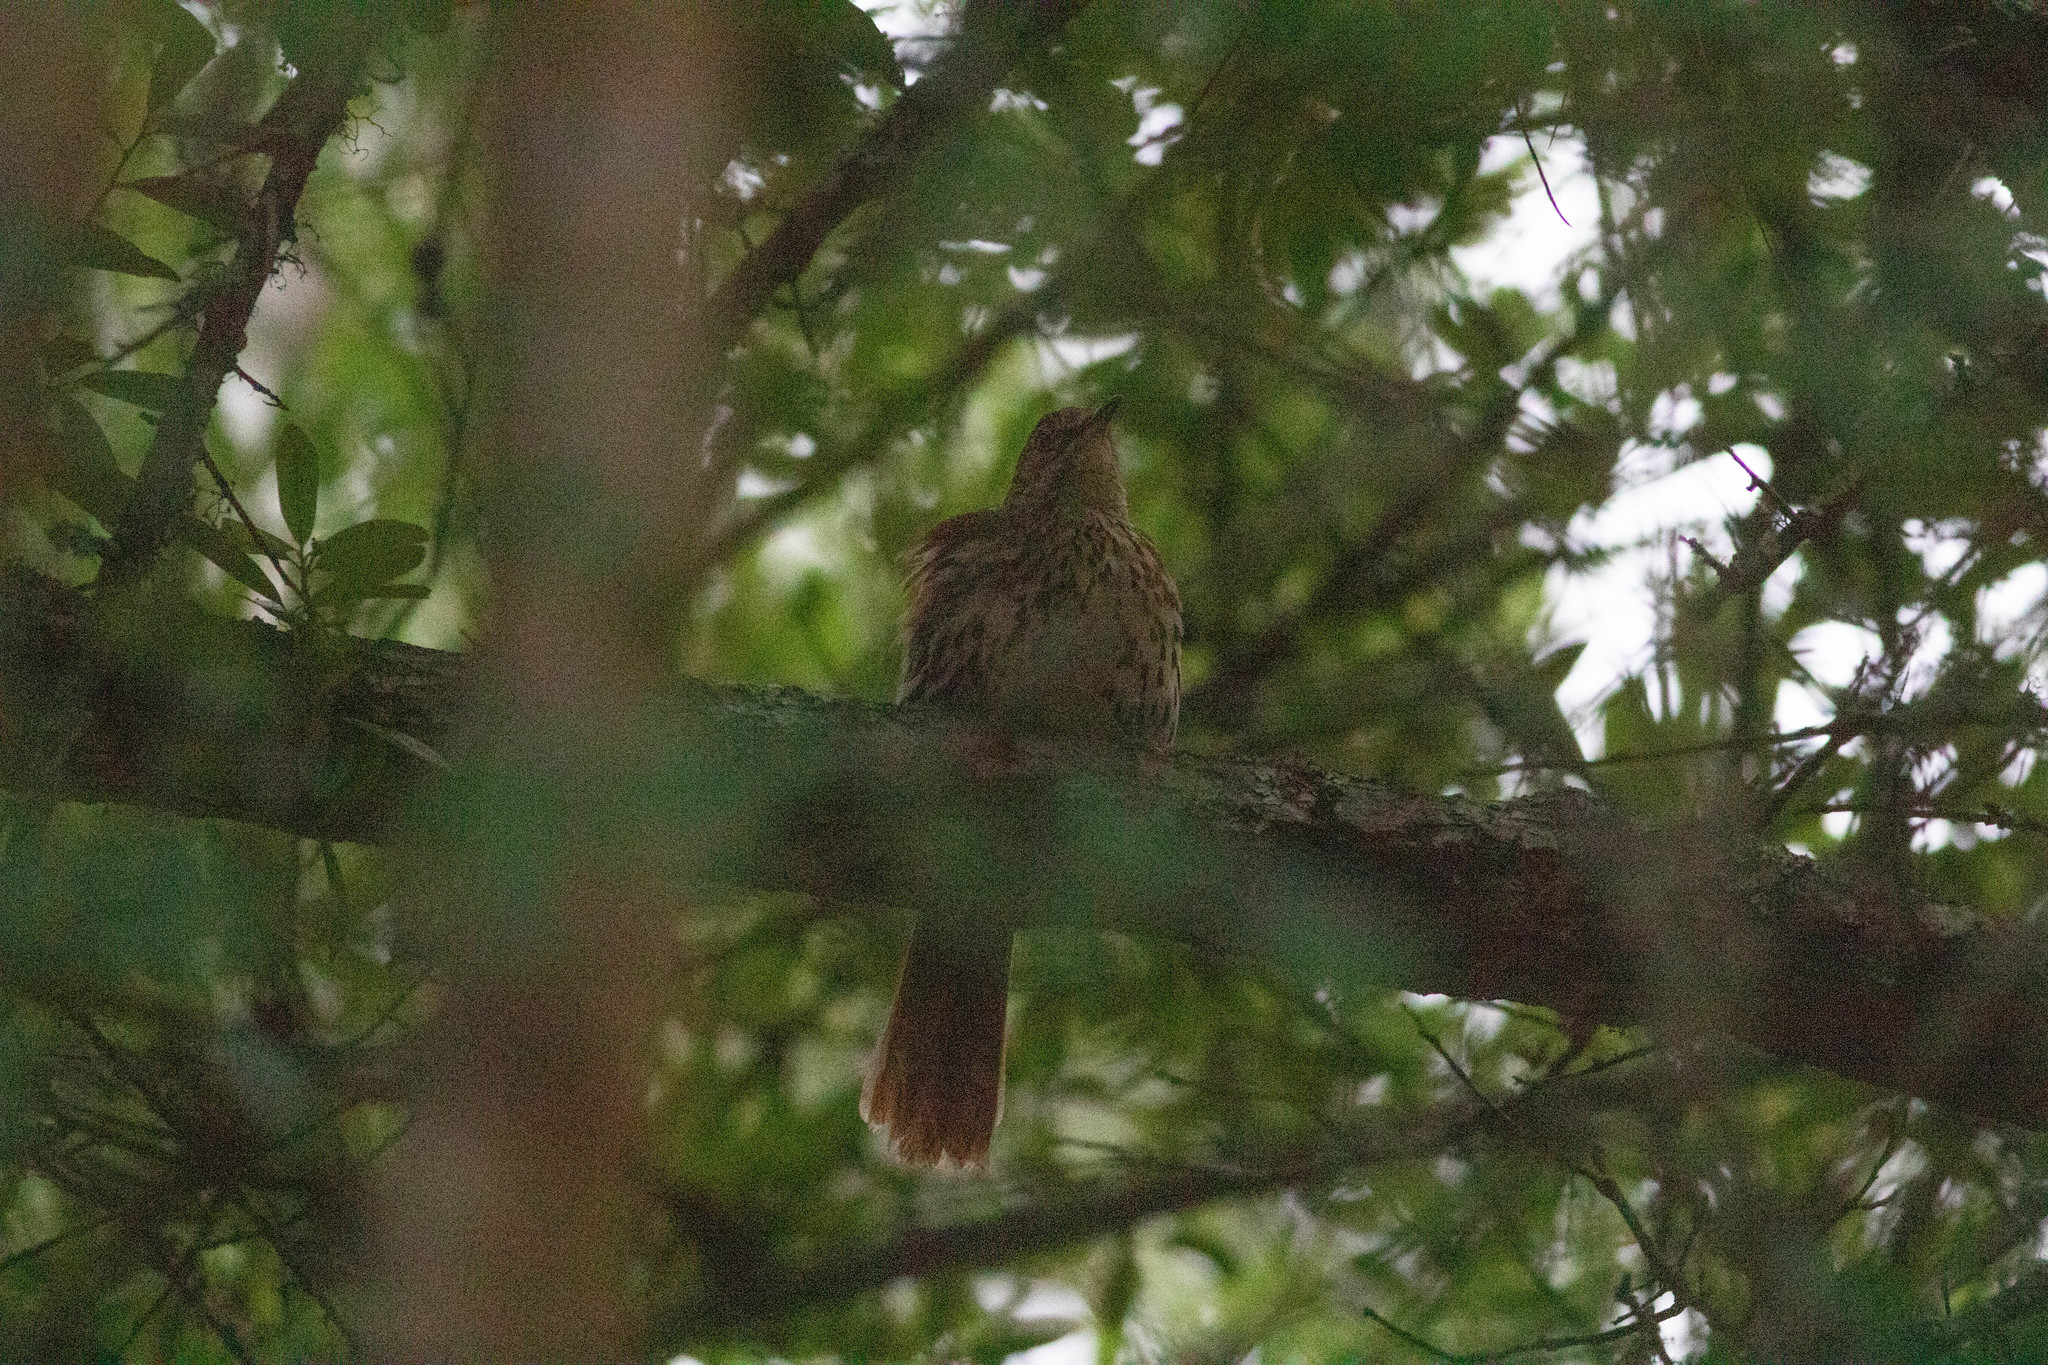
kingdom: Animalia
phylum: Chordata
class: Aves
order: Passeriformes
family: Mimidae
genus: Toxostoma
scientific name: Toxostoma rufum
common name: Brown thrasher
